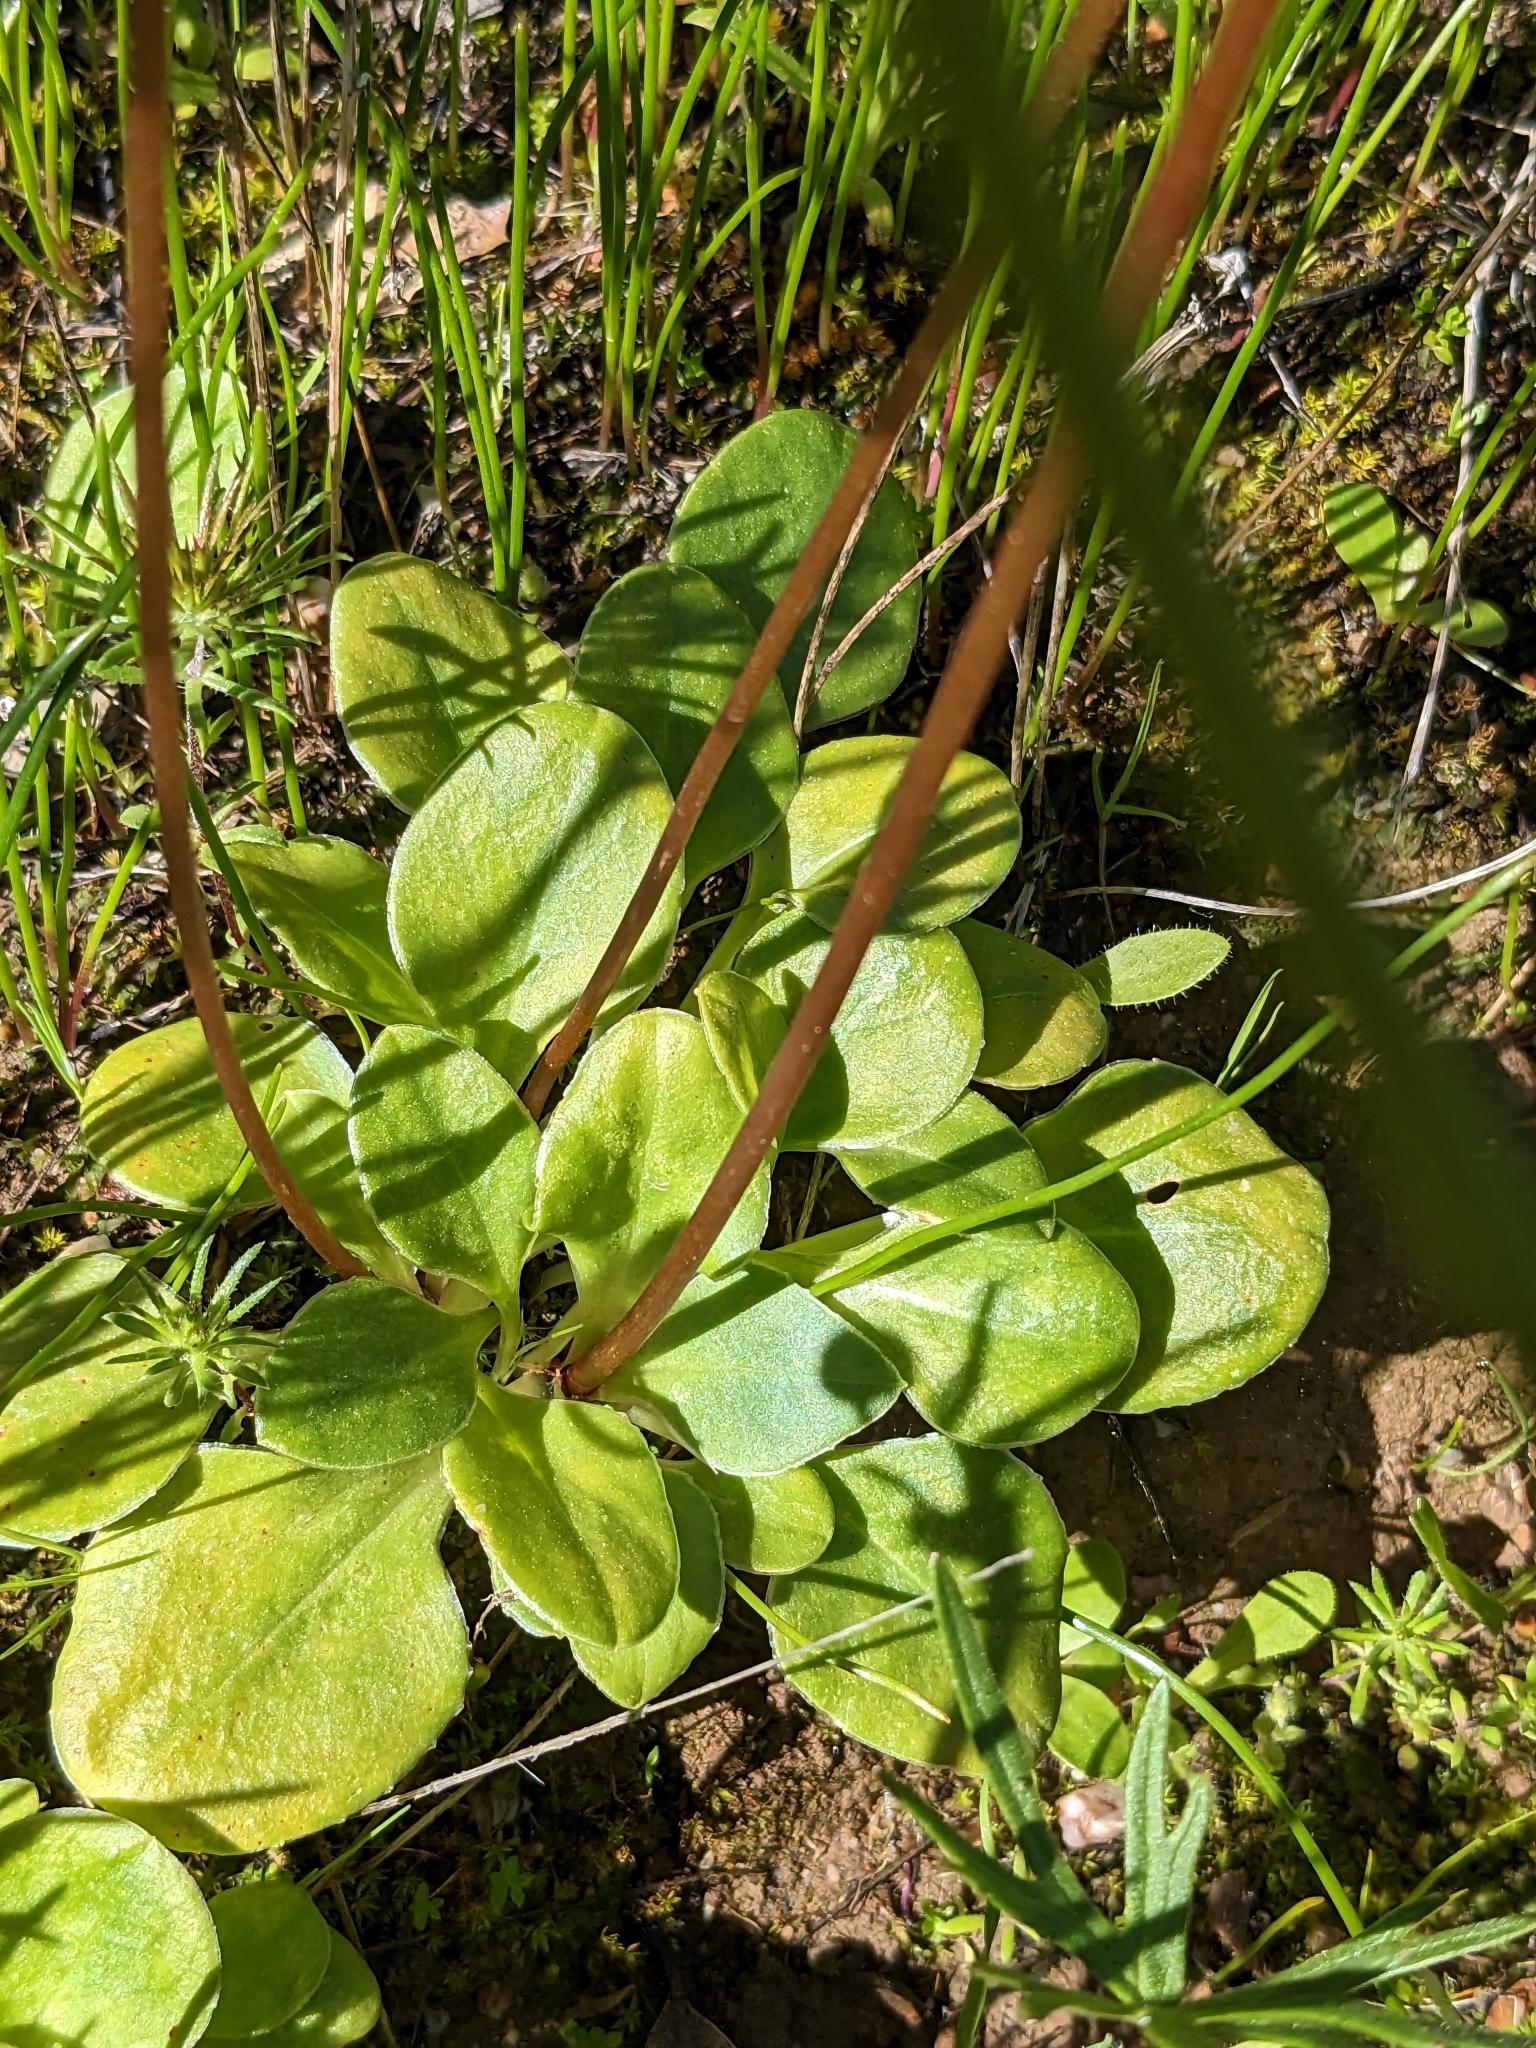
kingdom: Plantae
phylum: Tracheophyta
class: Magnoliopsida
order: Ericales
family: Primulaceae
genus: Dodecatheon
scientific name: Dodecatheon hendersonii
